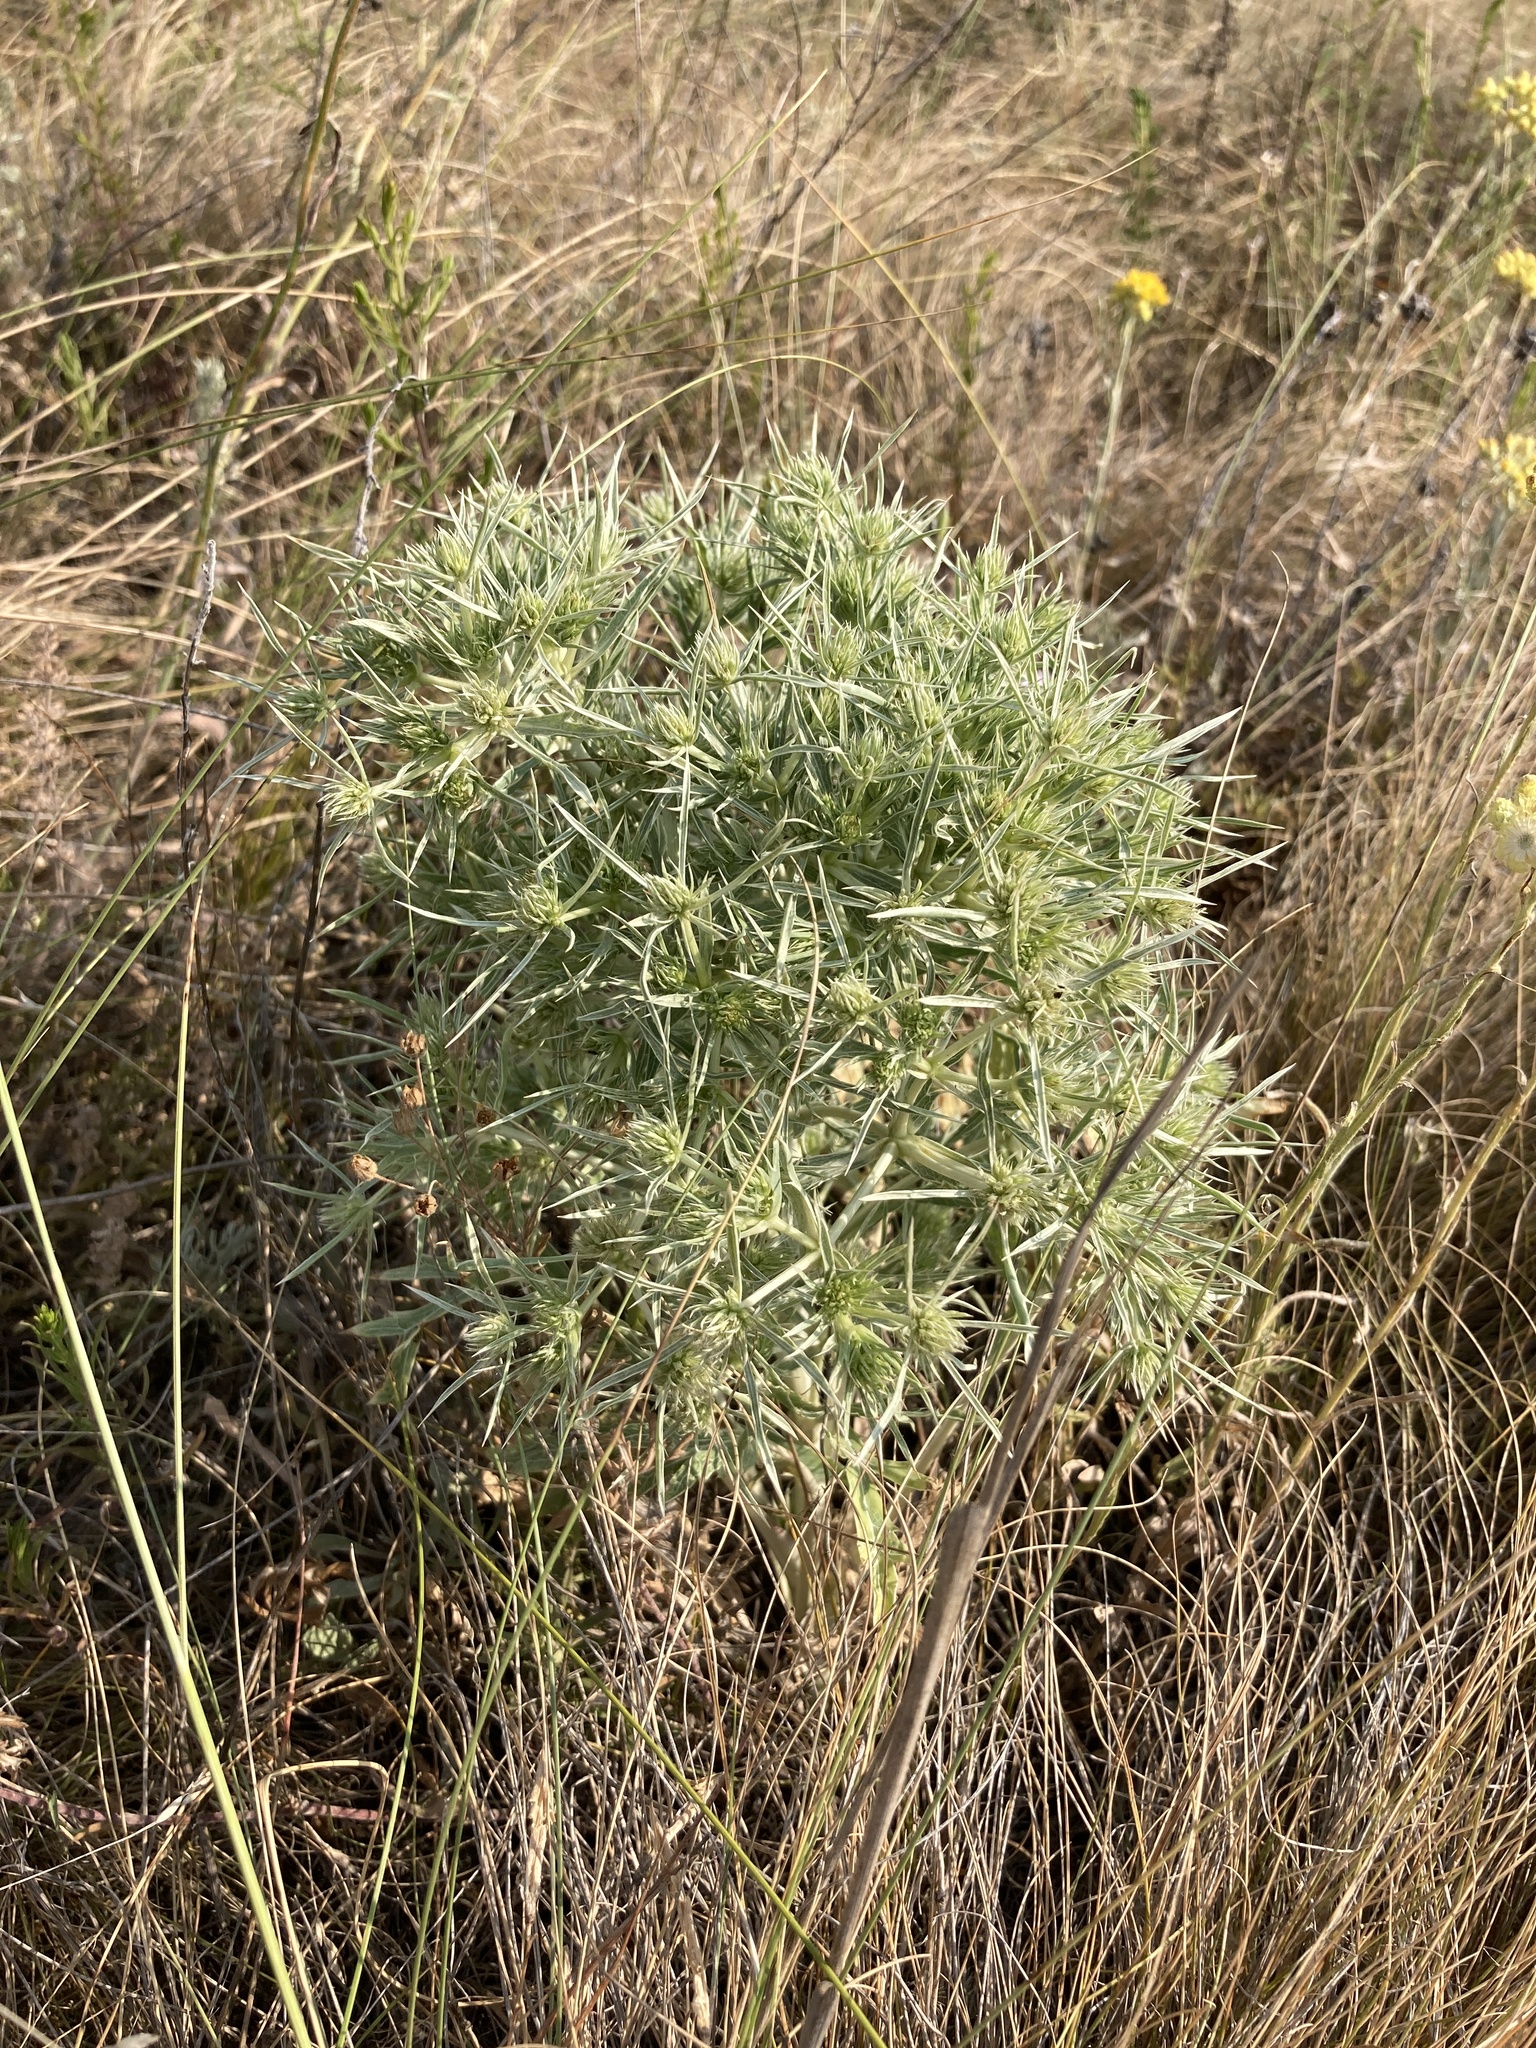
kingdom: Plantae
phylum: Tracheophyta
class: Magnoliopsida
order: Apiales
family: Apiaceae
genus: Eryngium
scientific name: Eryngium campestre
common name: Field eryngo
